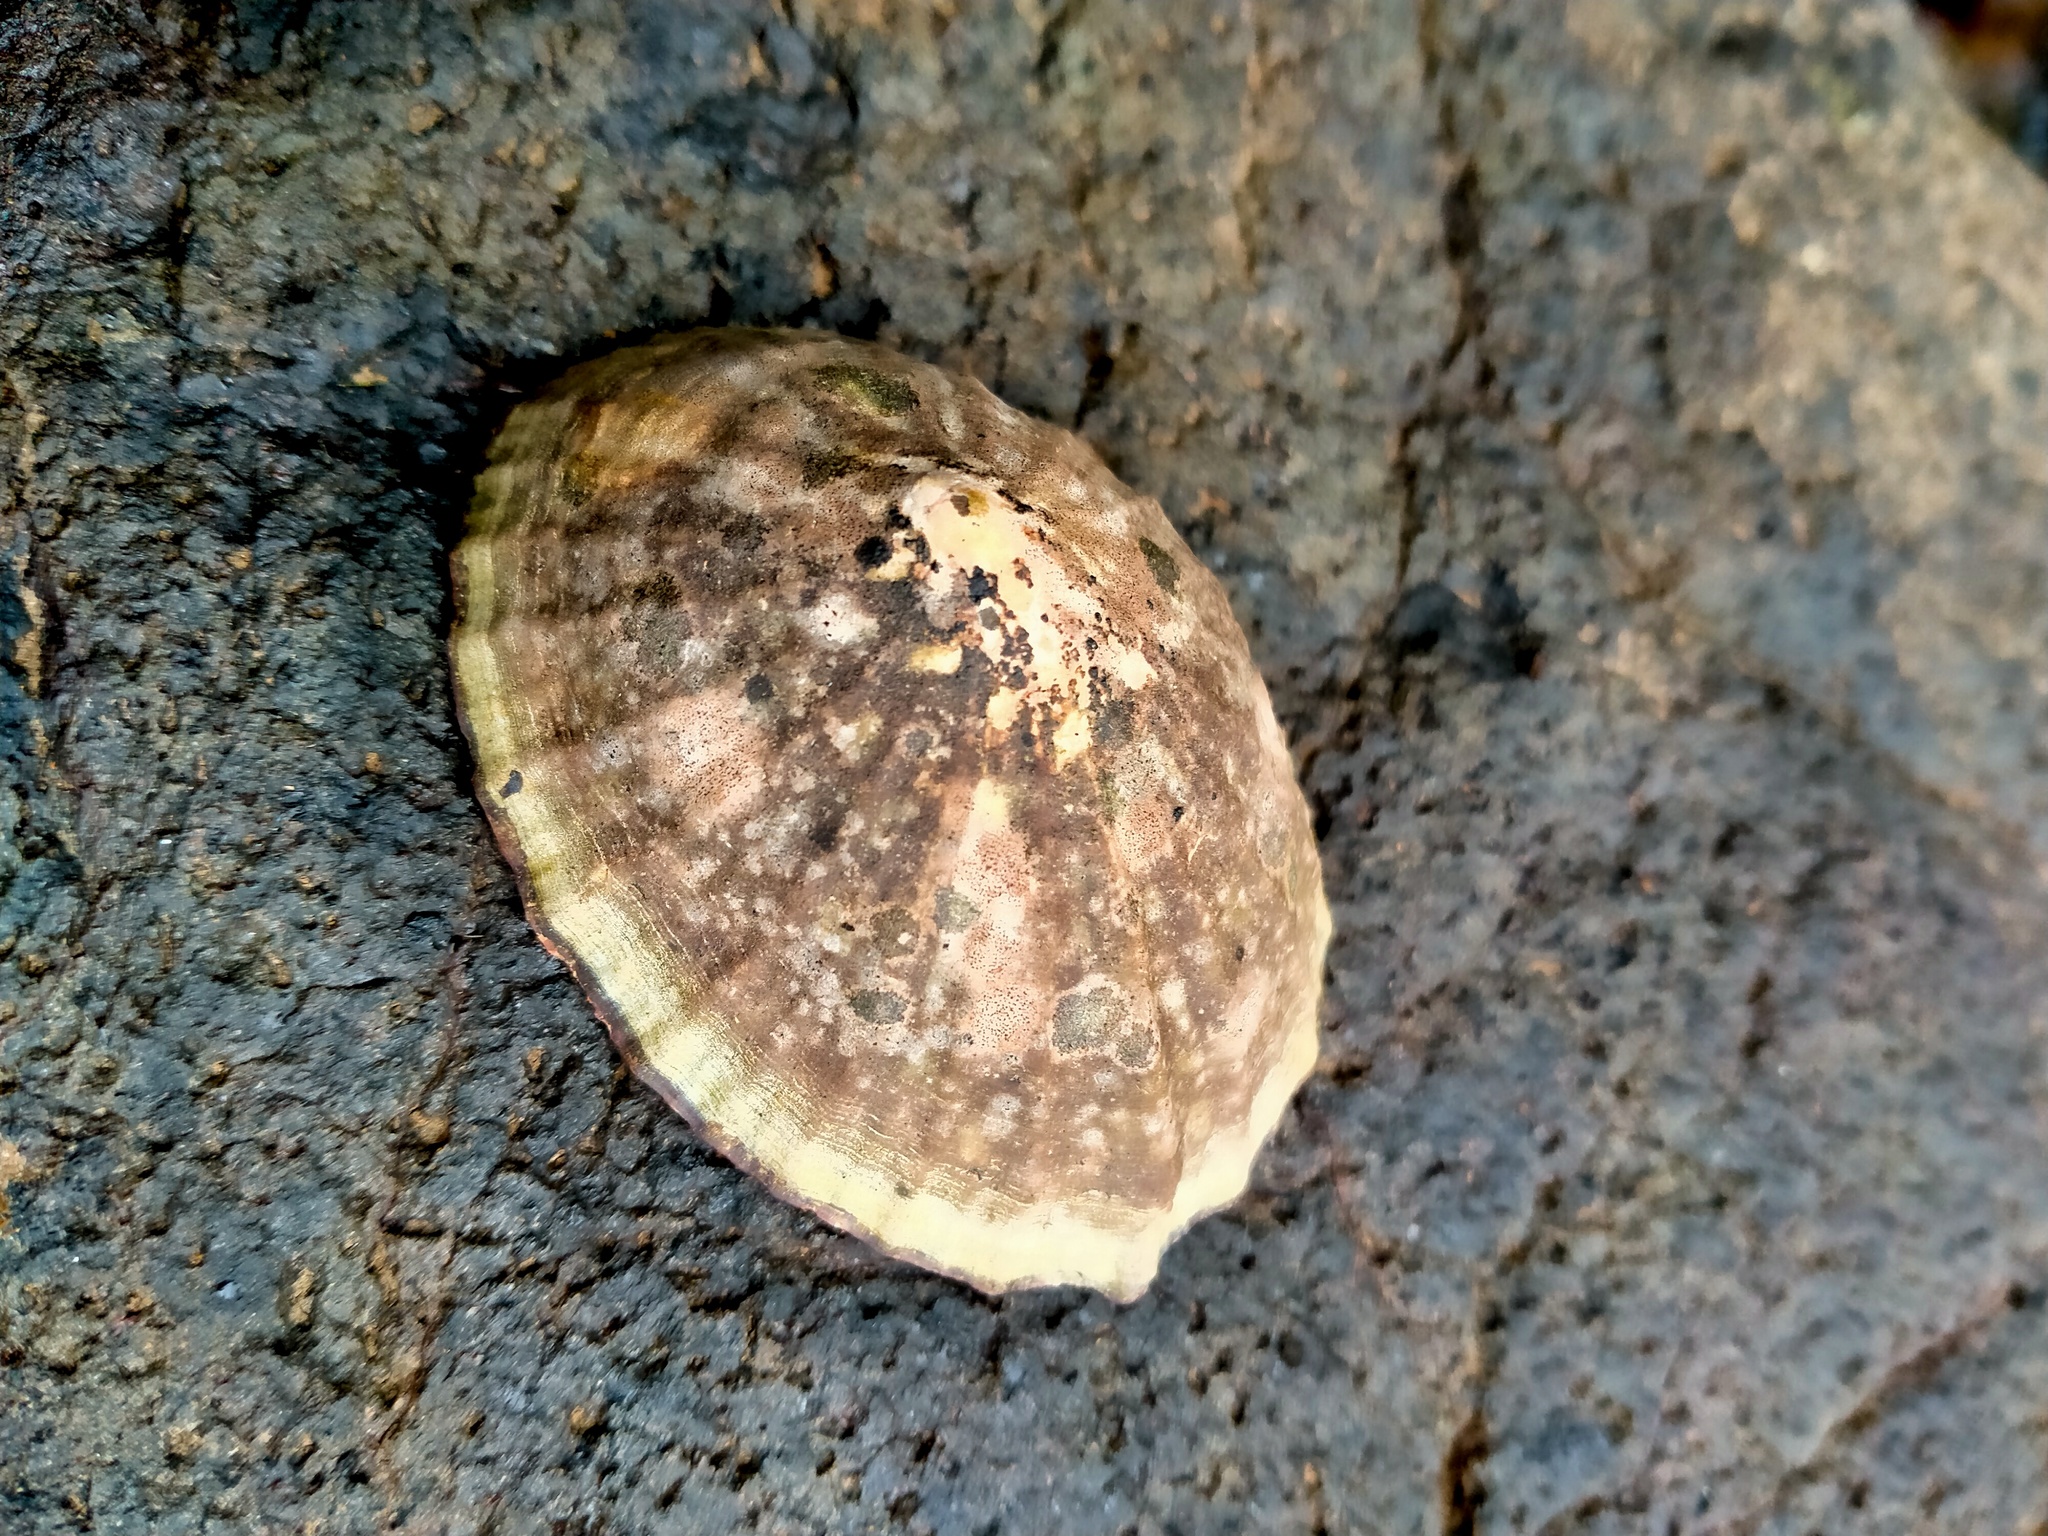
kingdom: Animalia
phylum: Mollusca
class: Gastropoda
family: Nacellidae
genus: Cellana
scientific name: Cellana strigilis
